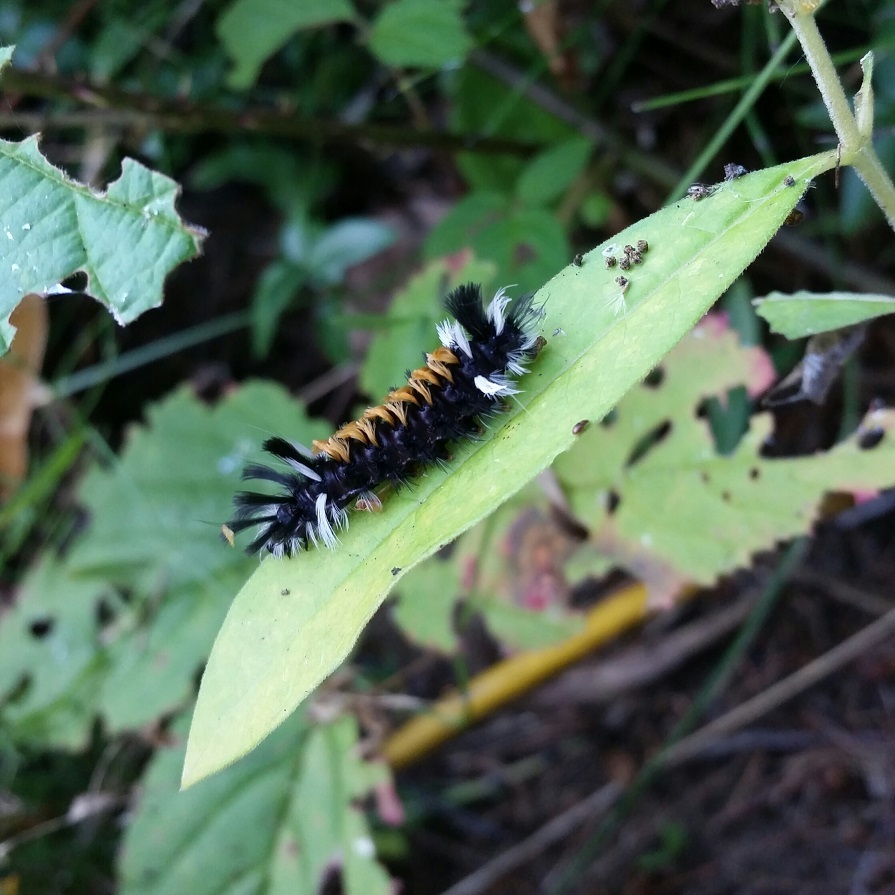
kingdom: Animalia
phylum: Arthropoda
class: Insecta
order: Lepidoptera
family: Erebidae
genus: Euchaetes
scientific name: Euchaetes egle
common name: Milkweed tussock moth
